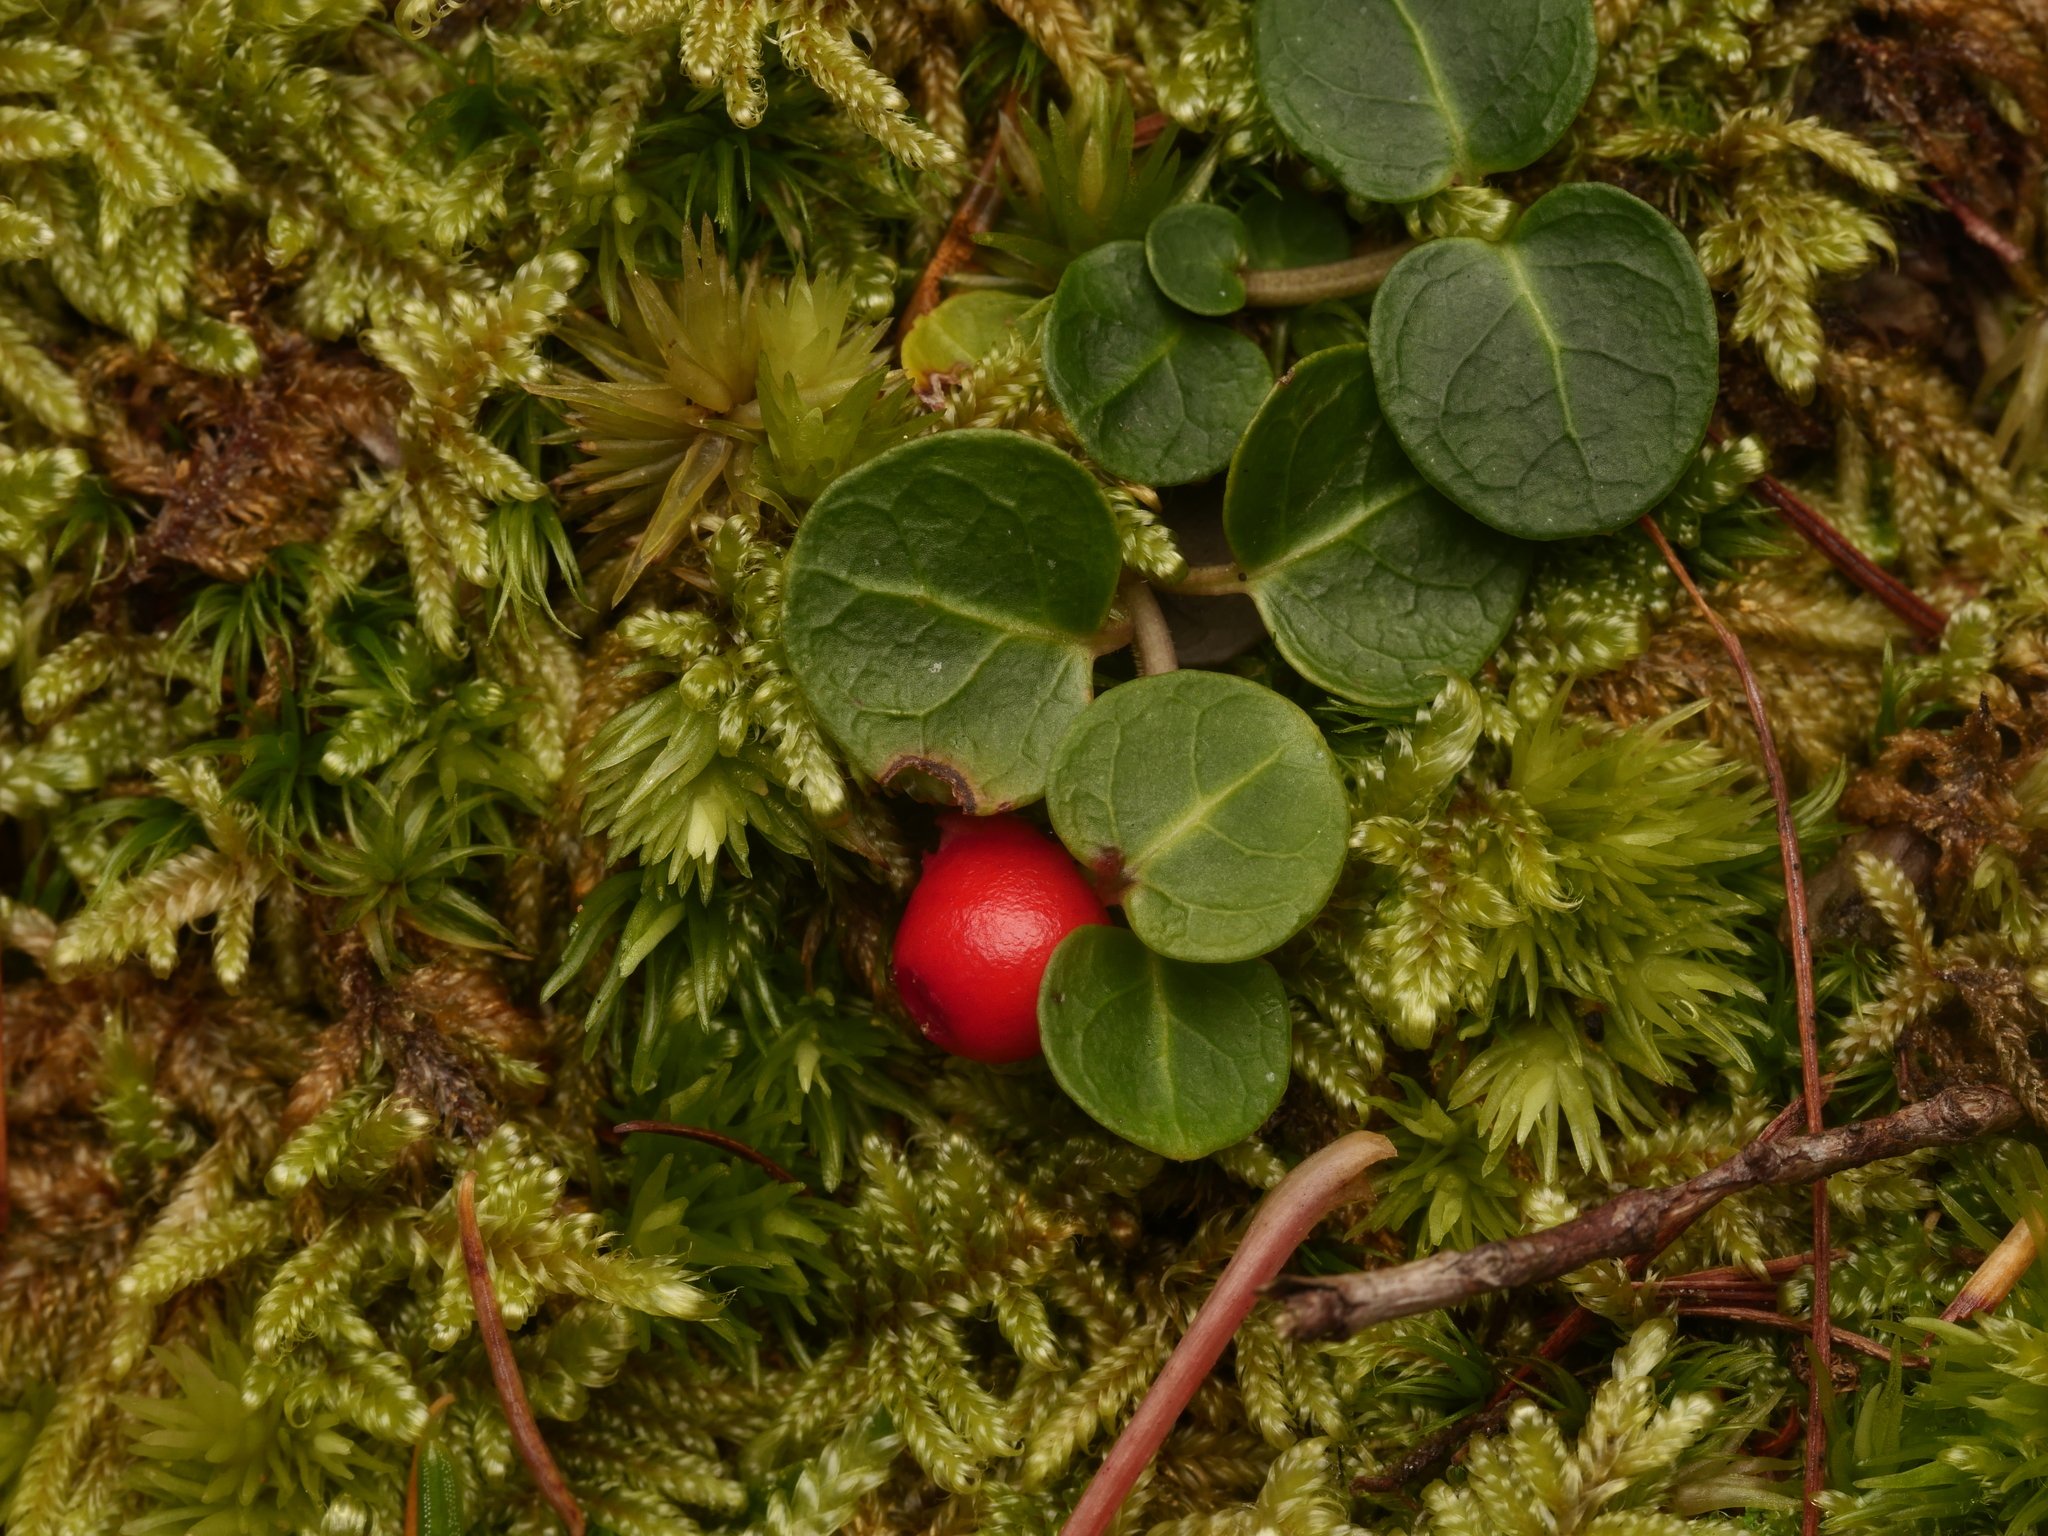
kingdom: Plantae
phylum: Tracheophyta
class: Magnoliopsida
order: Gentianales
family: Rubiaceae
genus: Mitchella
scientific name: Mitchella repens
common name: Partridge-berry
